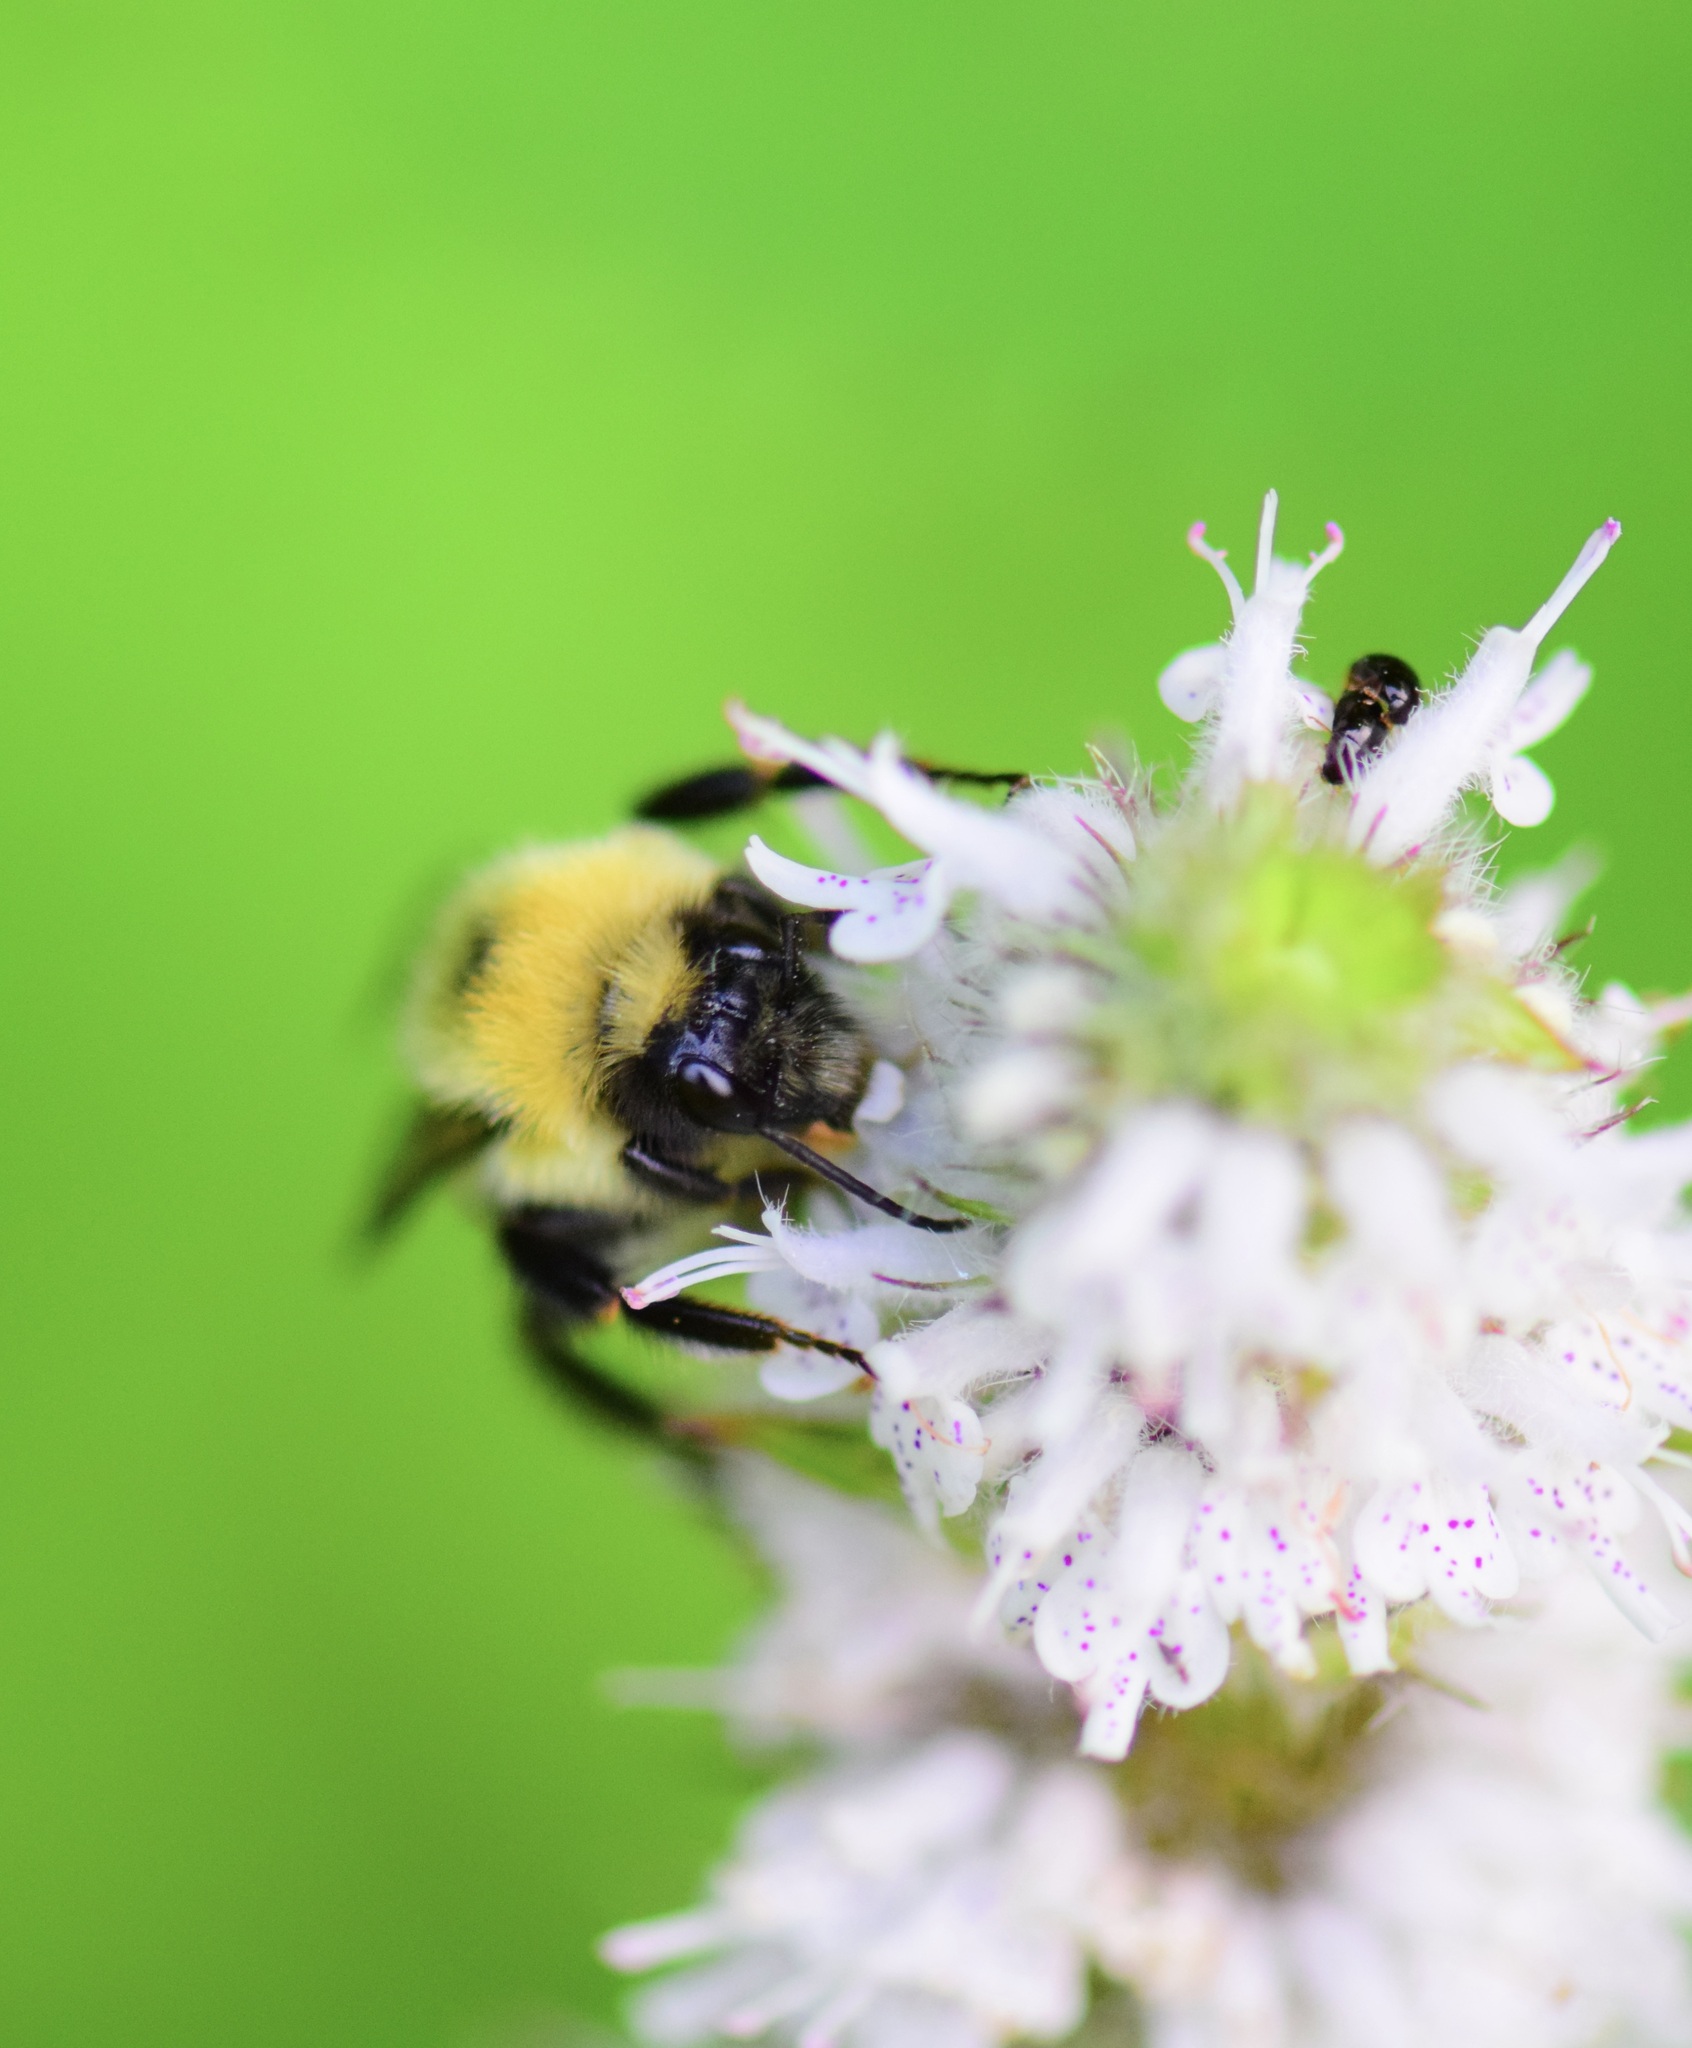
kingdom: Animalia
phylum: Arthropoda
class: Insecta
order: Hymenoptera
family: Apidae
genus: Bombus
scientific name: Bombus bimaculatus
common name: Two-spotted bumble bee
